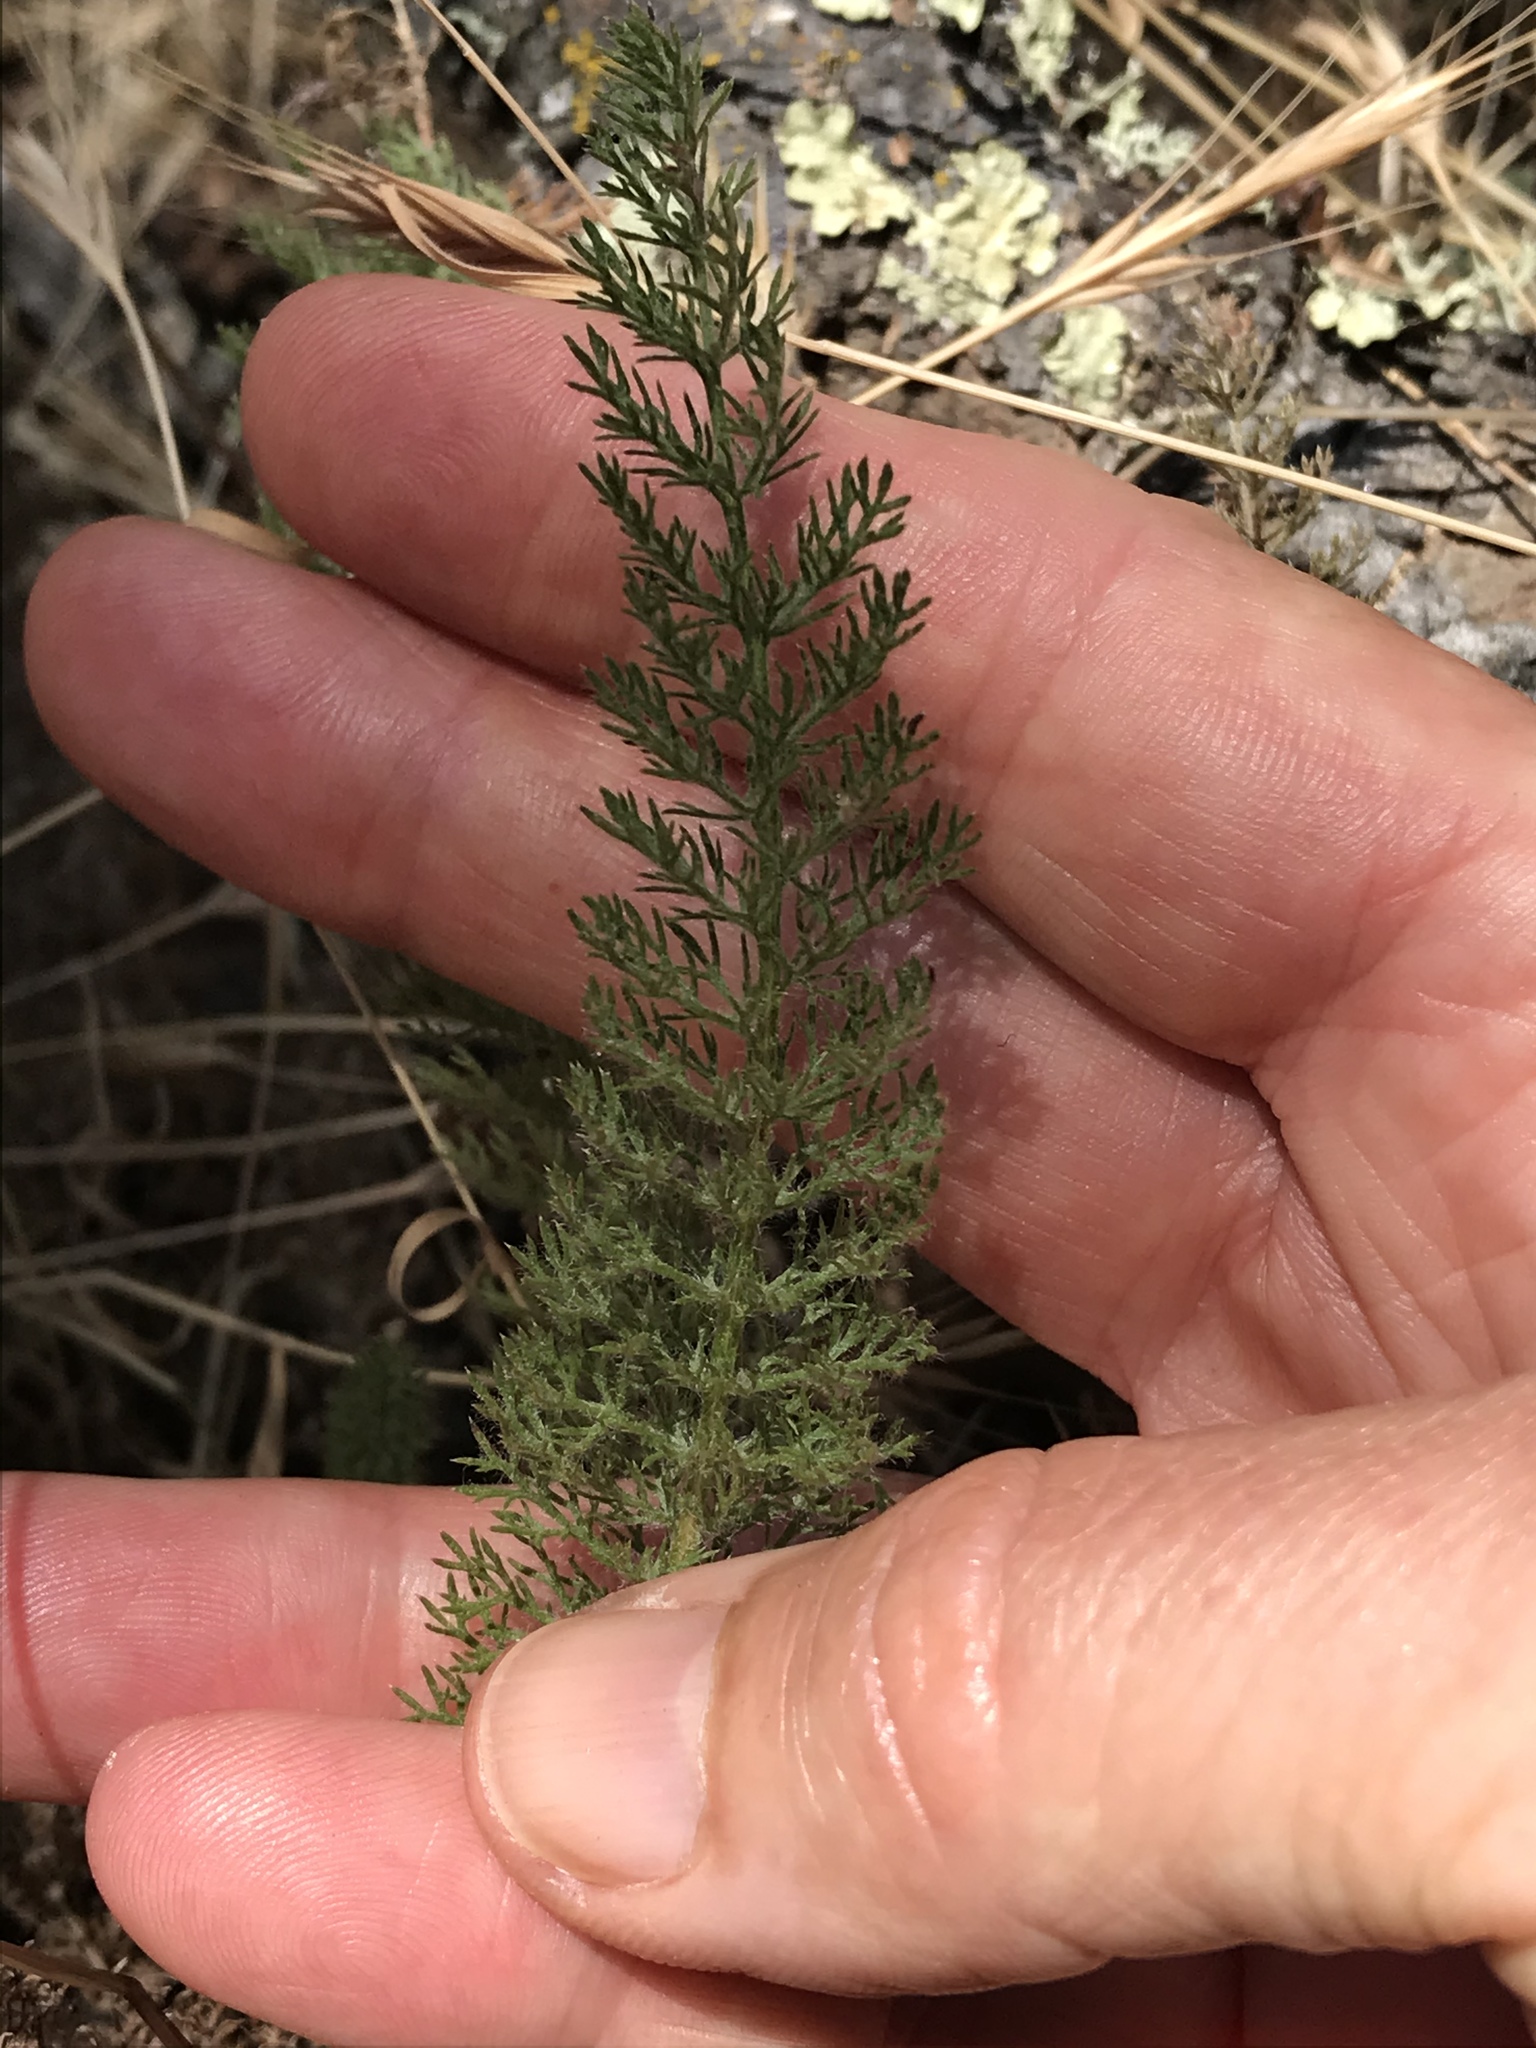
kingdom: Plantae
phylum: Tracheophyta
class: Magnoliopsida
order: Asterales
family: Asteraceae
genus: Achillea
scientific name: Achillea millefolium
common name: Yarrow
